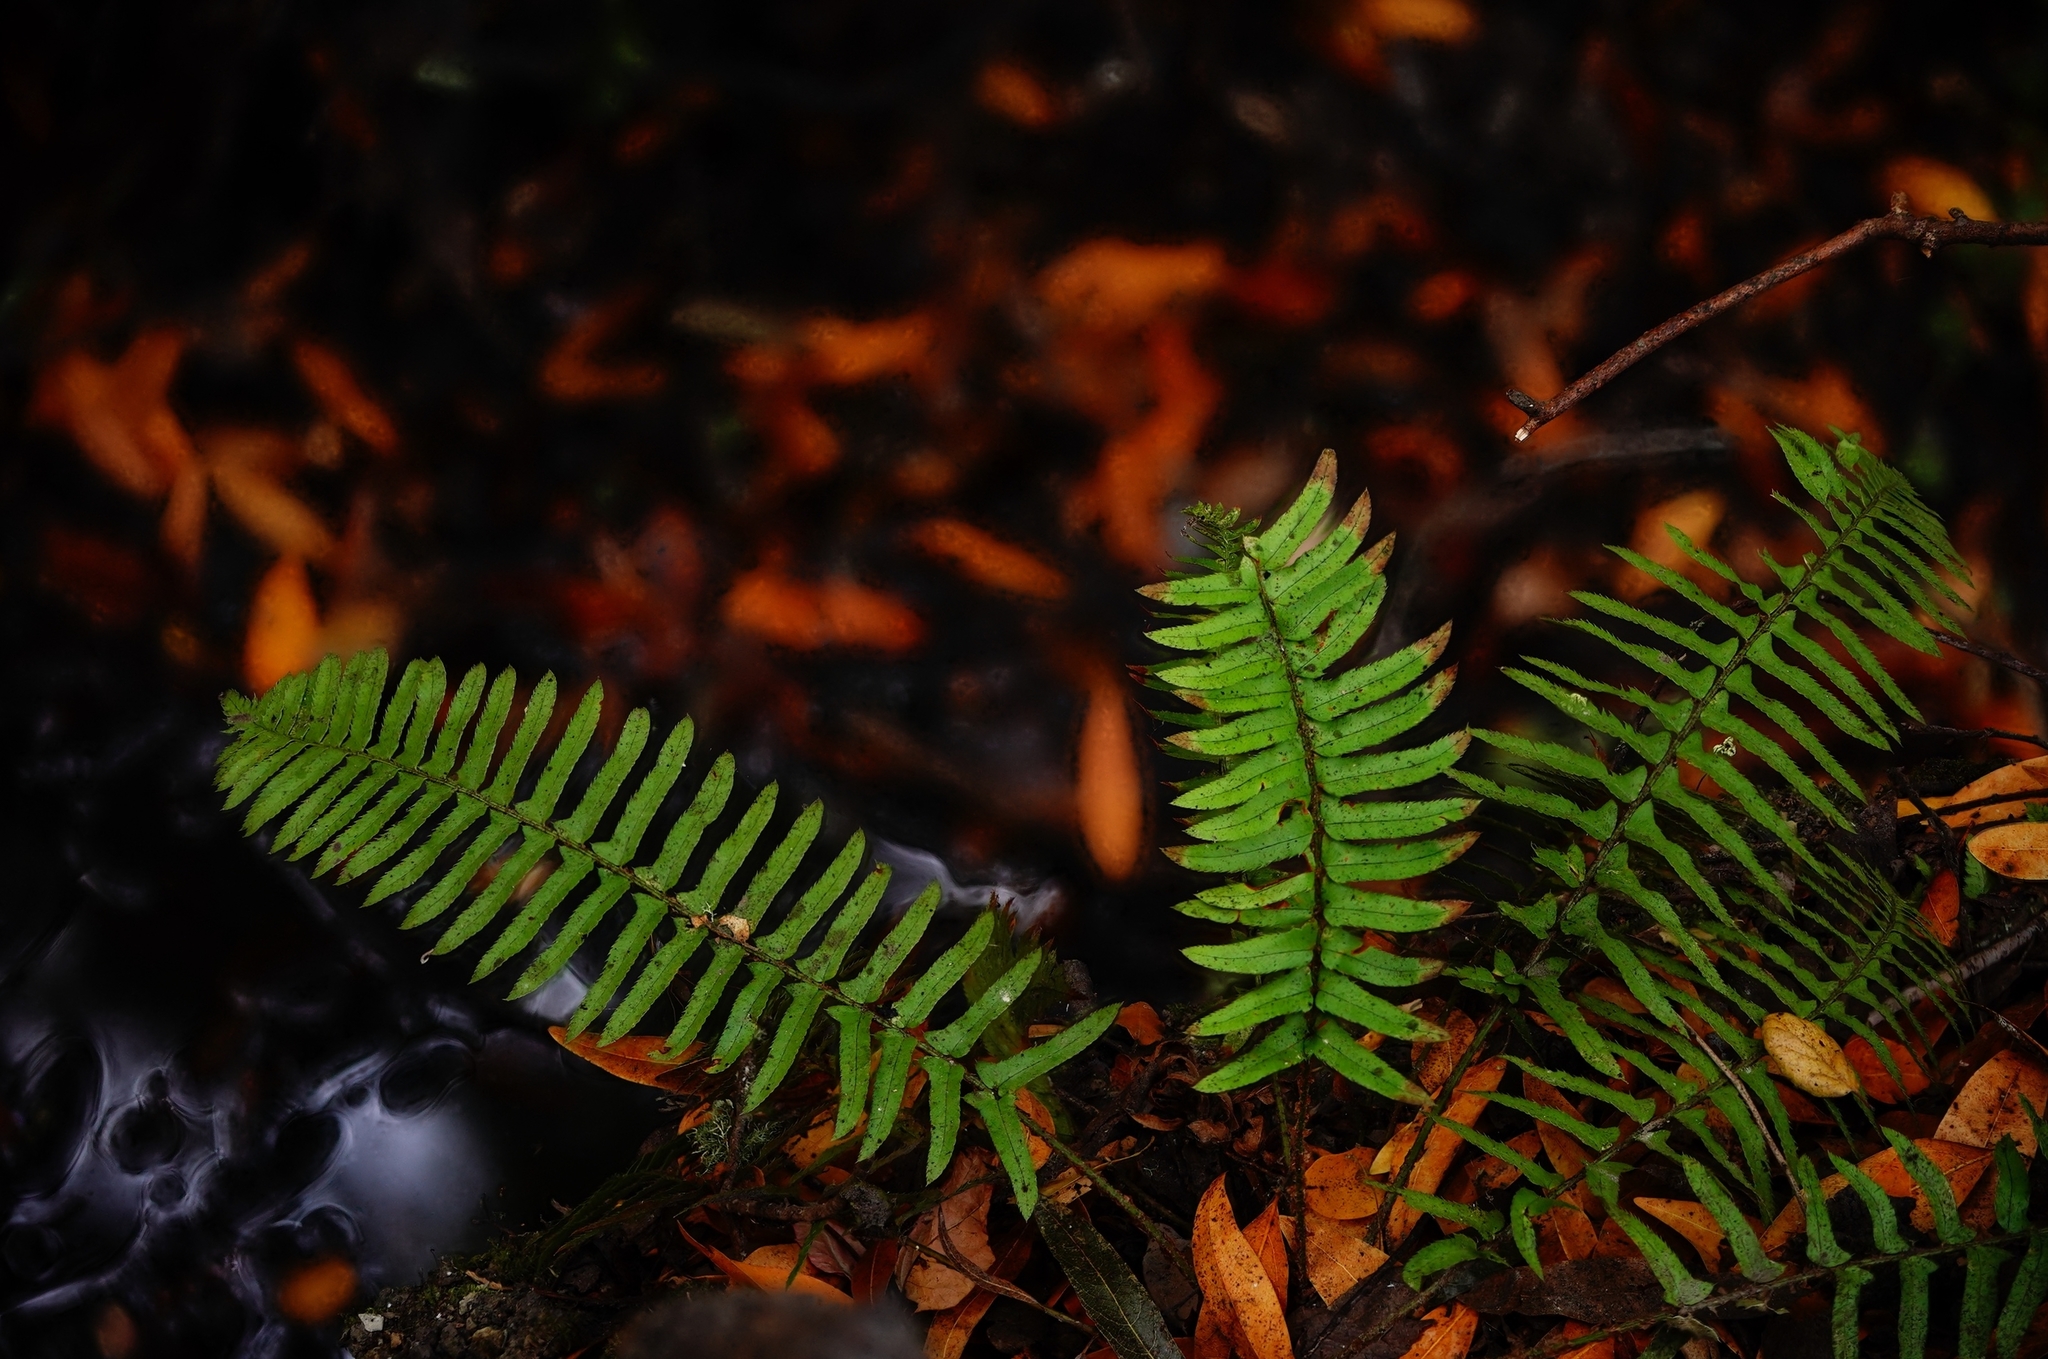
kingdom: Plantae
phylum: Tracheophyta
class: Polypodiopsida
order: Polypodiales
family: Dryopteridaceae
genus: Polystichum
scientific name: Polystichum munitum
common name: Western sword-fern
